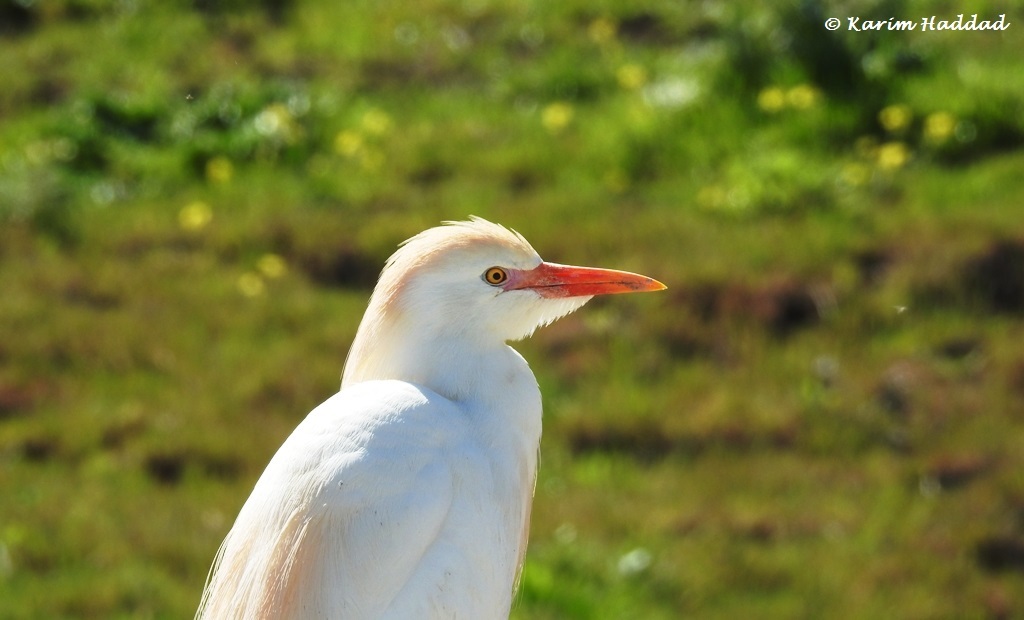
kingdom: Animalia
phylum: Chordata
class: Aves
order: Pelecaniformes
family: Ardeidae
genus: Bubulcus
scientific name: Bubulcus ibis
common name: Cattle egret
